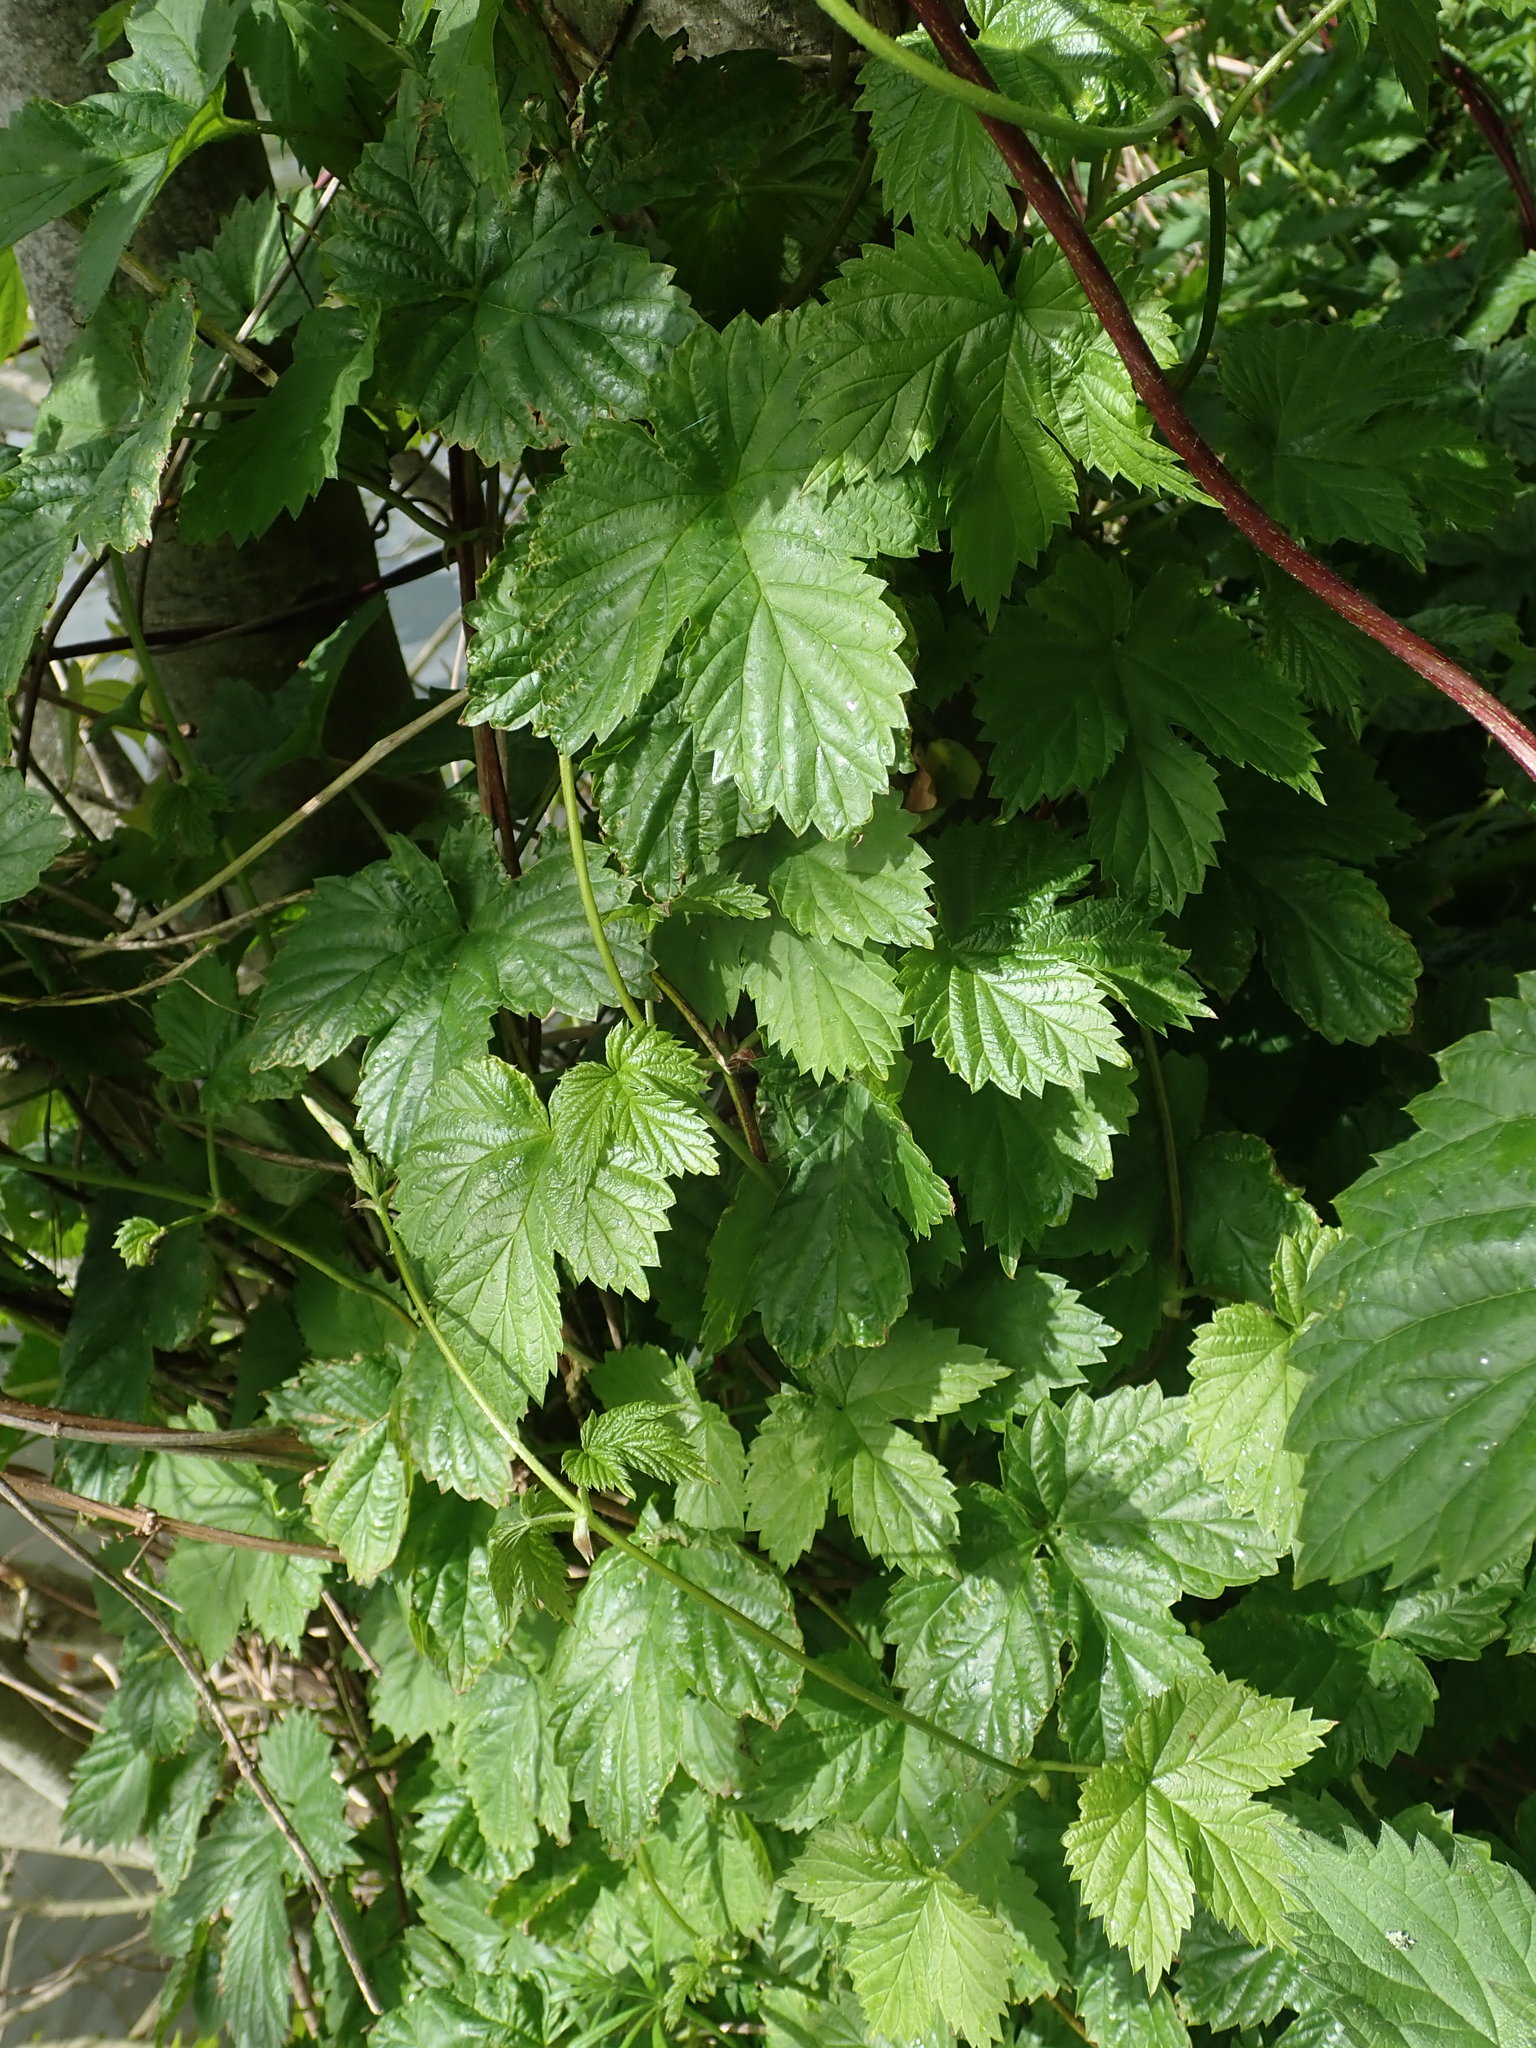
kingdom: Plantae
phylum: Tracheophyta
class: Magnoliopsida
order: Rosales
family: Cannabaceae
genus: Humulus
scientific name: Humulus lupulus
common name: Hop
